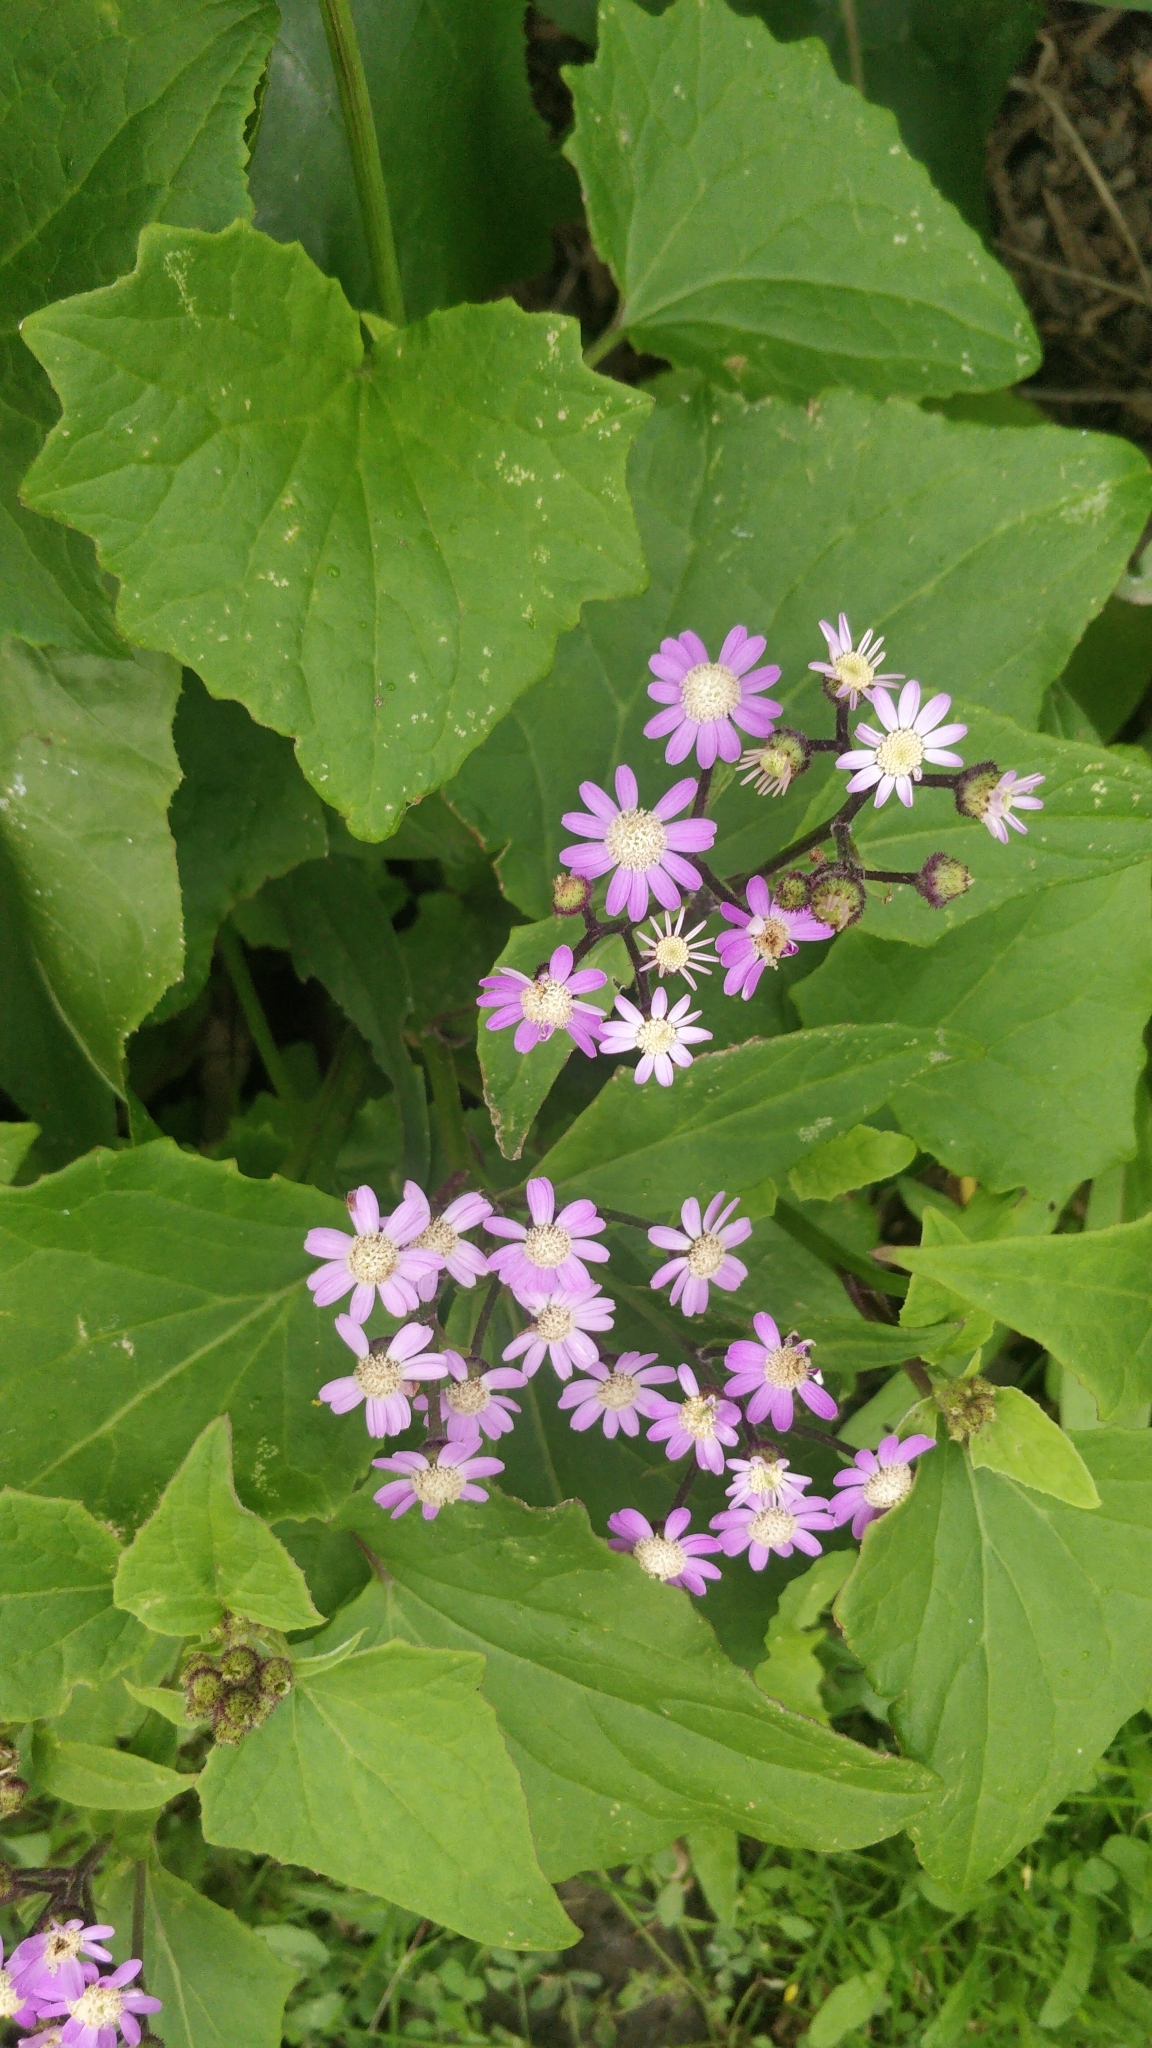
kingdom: Plantae
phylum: Tracheophyta
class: Magnoliopsida
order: Asterales
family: Asteraceae
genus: Pericallis
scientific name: Pericallis echinata
